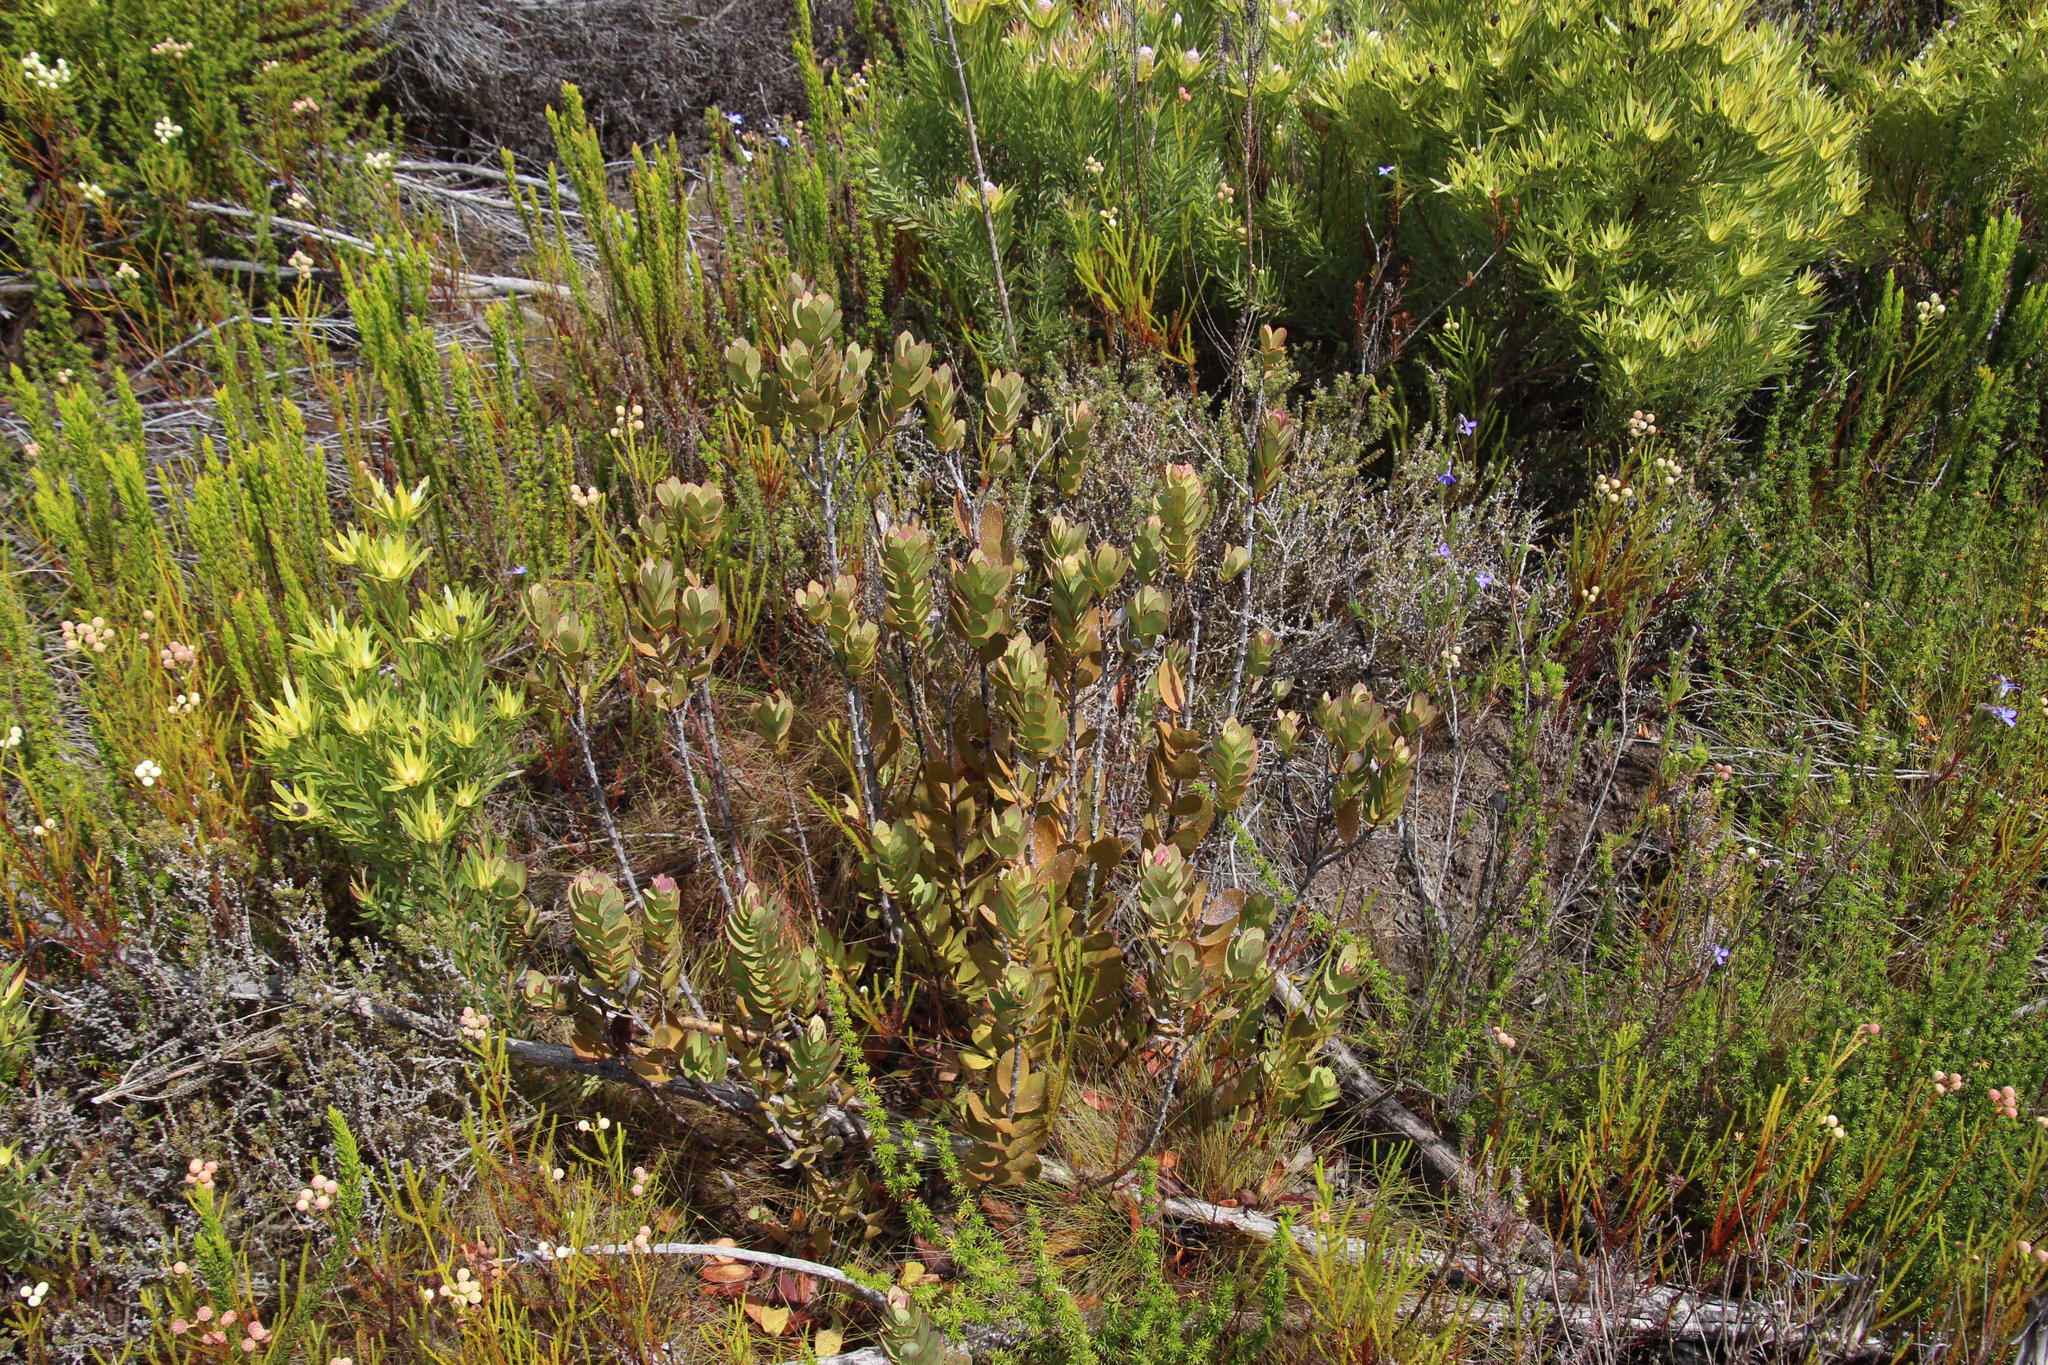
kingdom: Plantae
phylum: Tracheophyta
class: Magnoliopsida
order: Santalales
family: Santalaceae
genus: Osyris
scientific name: Osyris compressa
